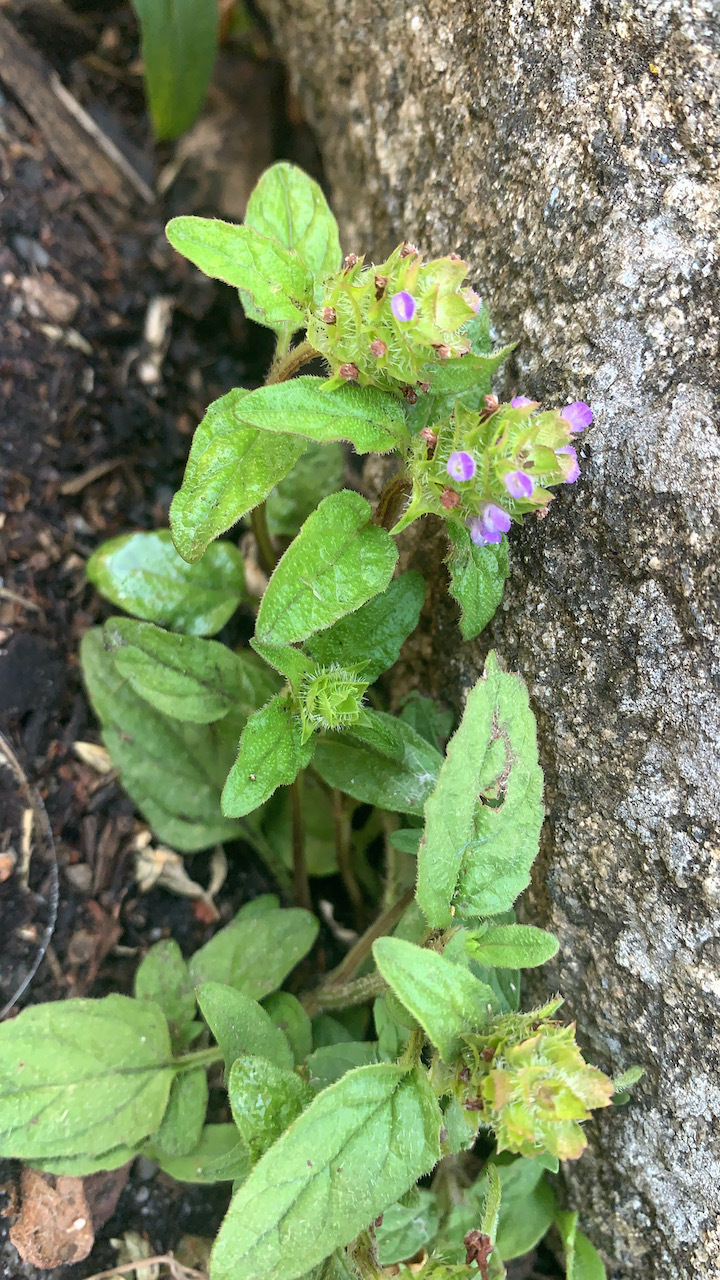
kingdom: Plantae
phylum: Tracheophyta
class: Magnoliopsida
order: Lamiales
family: Lamiaceae
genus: Prunella
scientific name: Prunella vulgaris
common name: Heal-all
